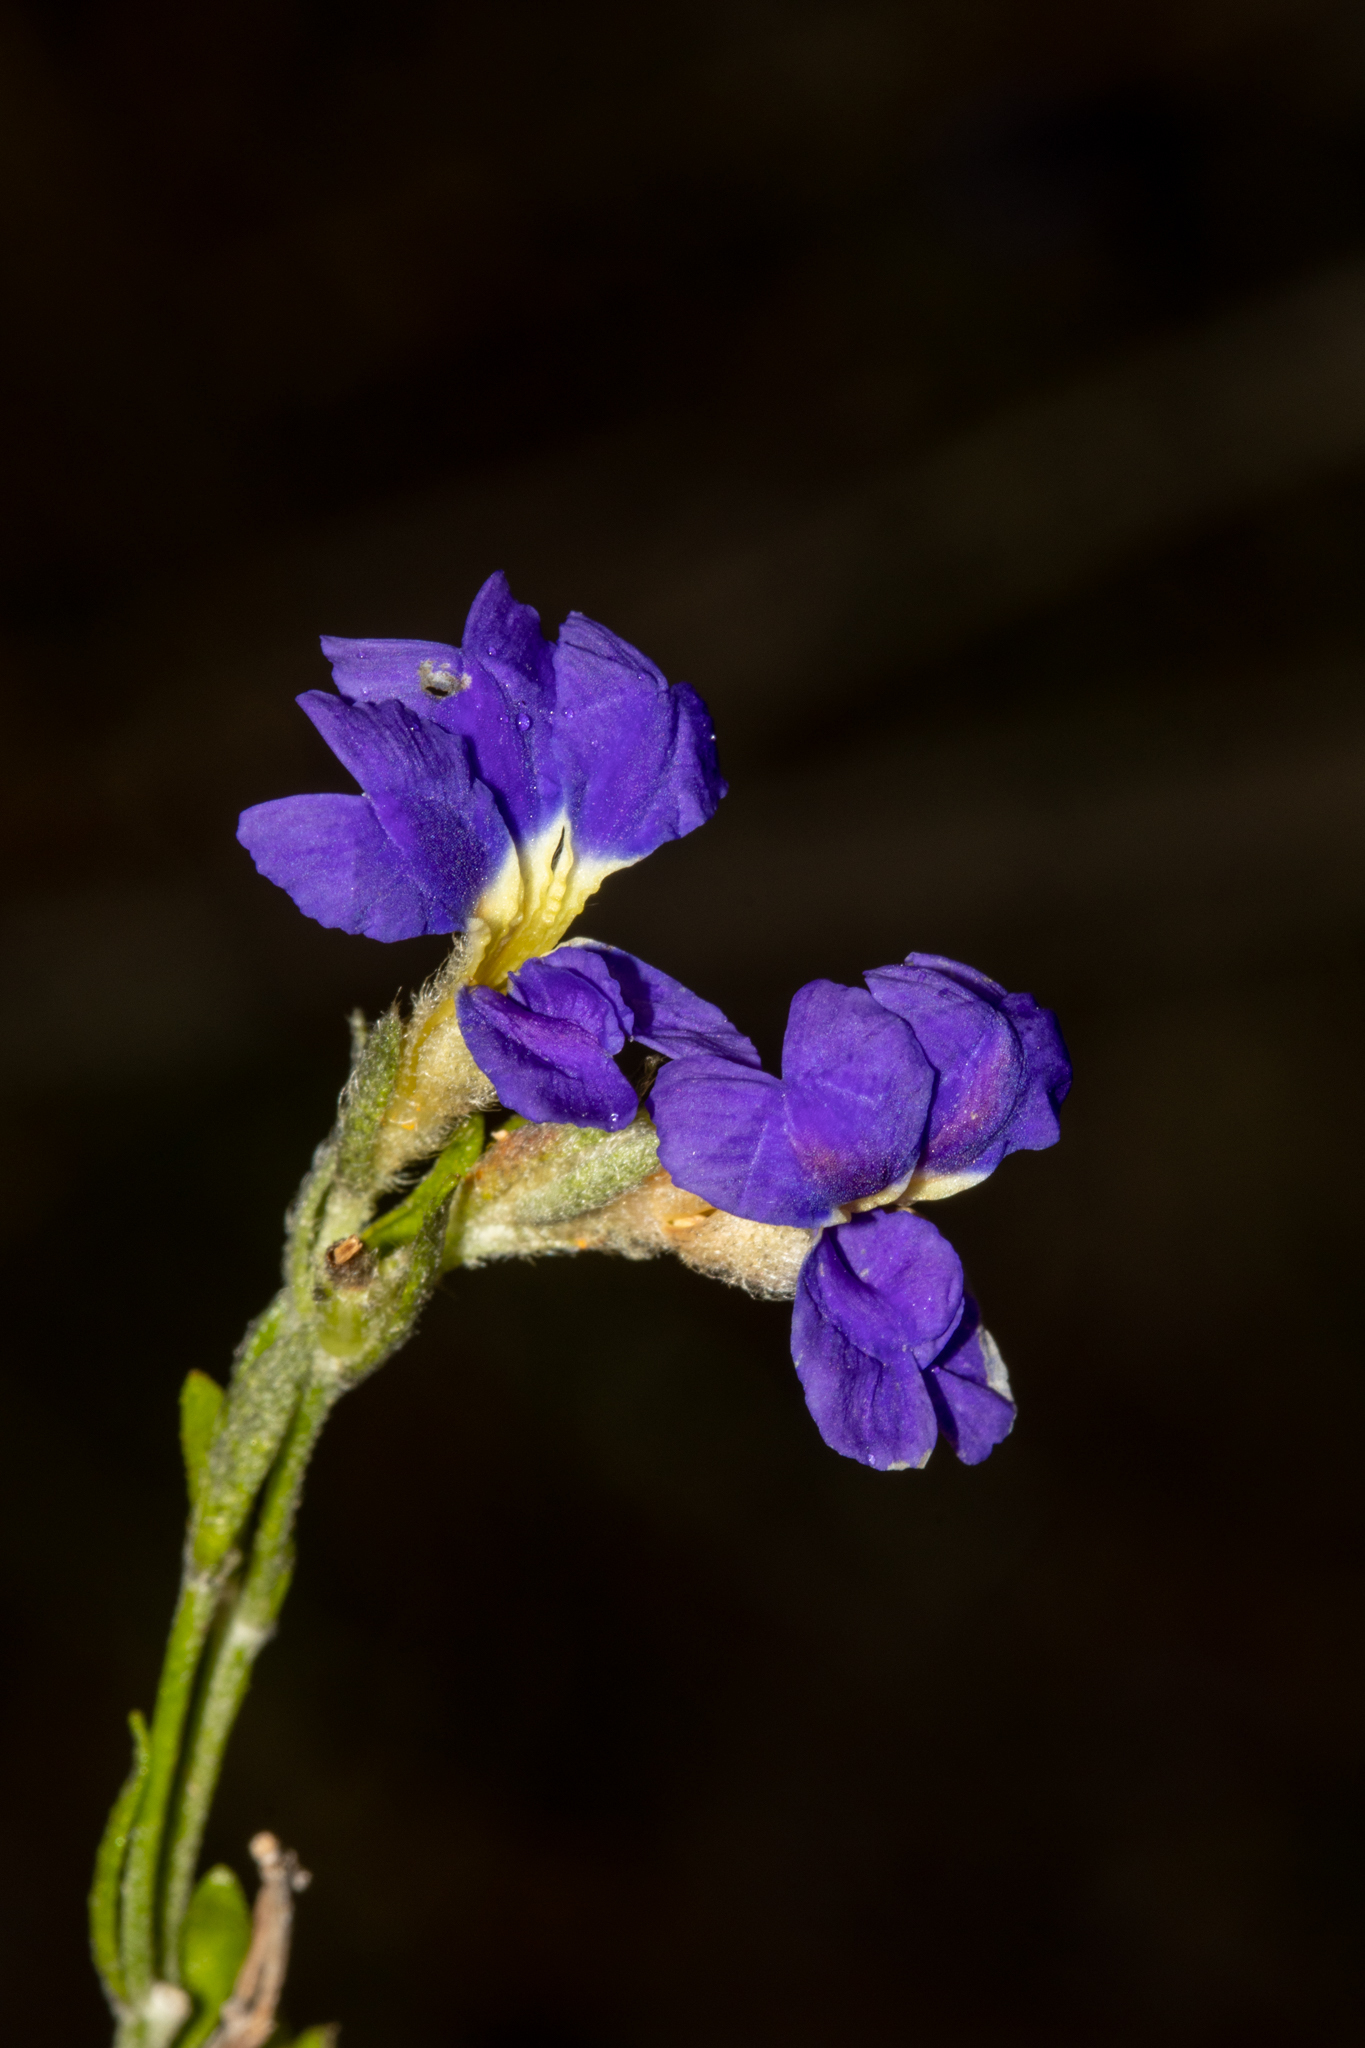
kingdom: Plantae
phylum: Tracheophyta
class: Magnoliopsida
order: Asterales
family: Goodeniaceae
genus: Dampiera
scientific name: Dampiera dysantha
